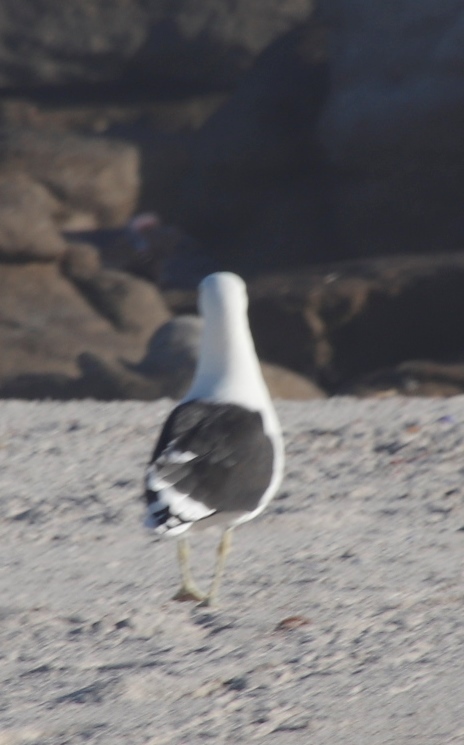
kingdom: Animalia
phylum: Chordata
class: Aves
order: Charadriiformes
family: Laridae
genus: Larus
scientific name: Larus dominicanus
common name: Kelp gull
